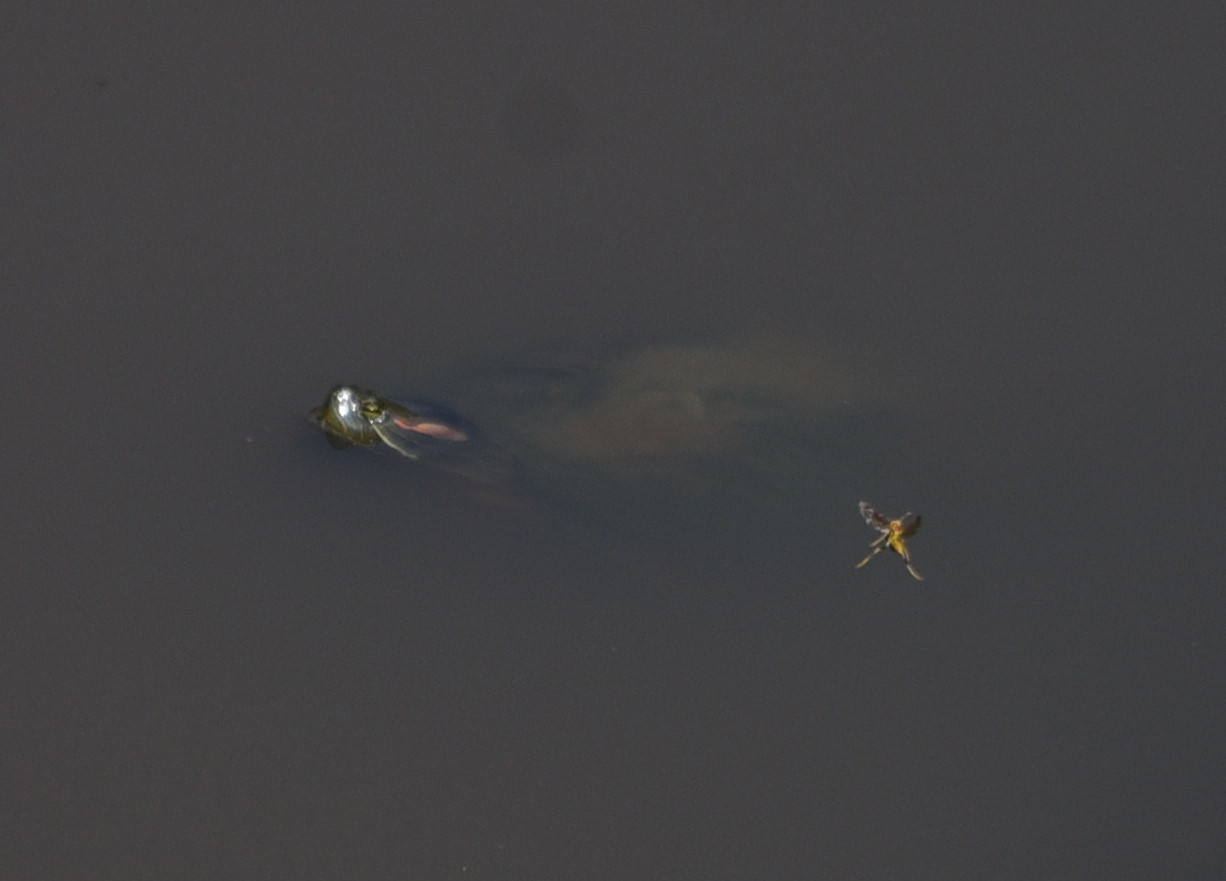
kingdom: Animalia
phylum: Chordata
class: Testudines
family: Emydidae
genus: Trachemys
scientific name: Trachemys scripta
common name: Slider
